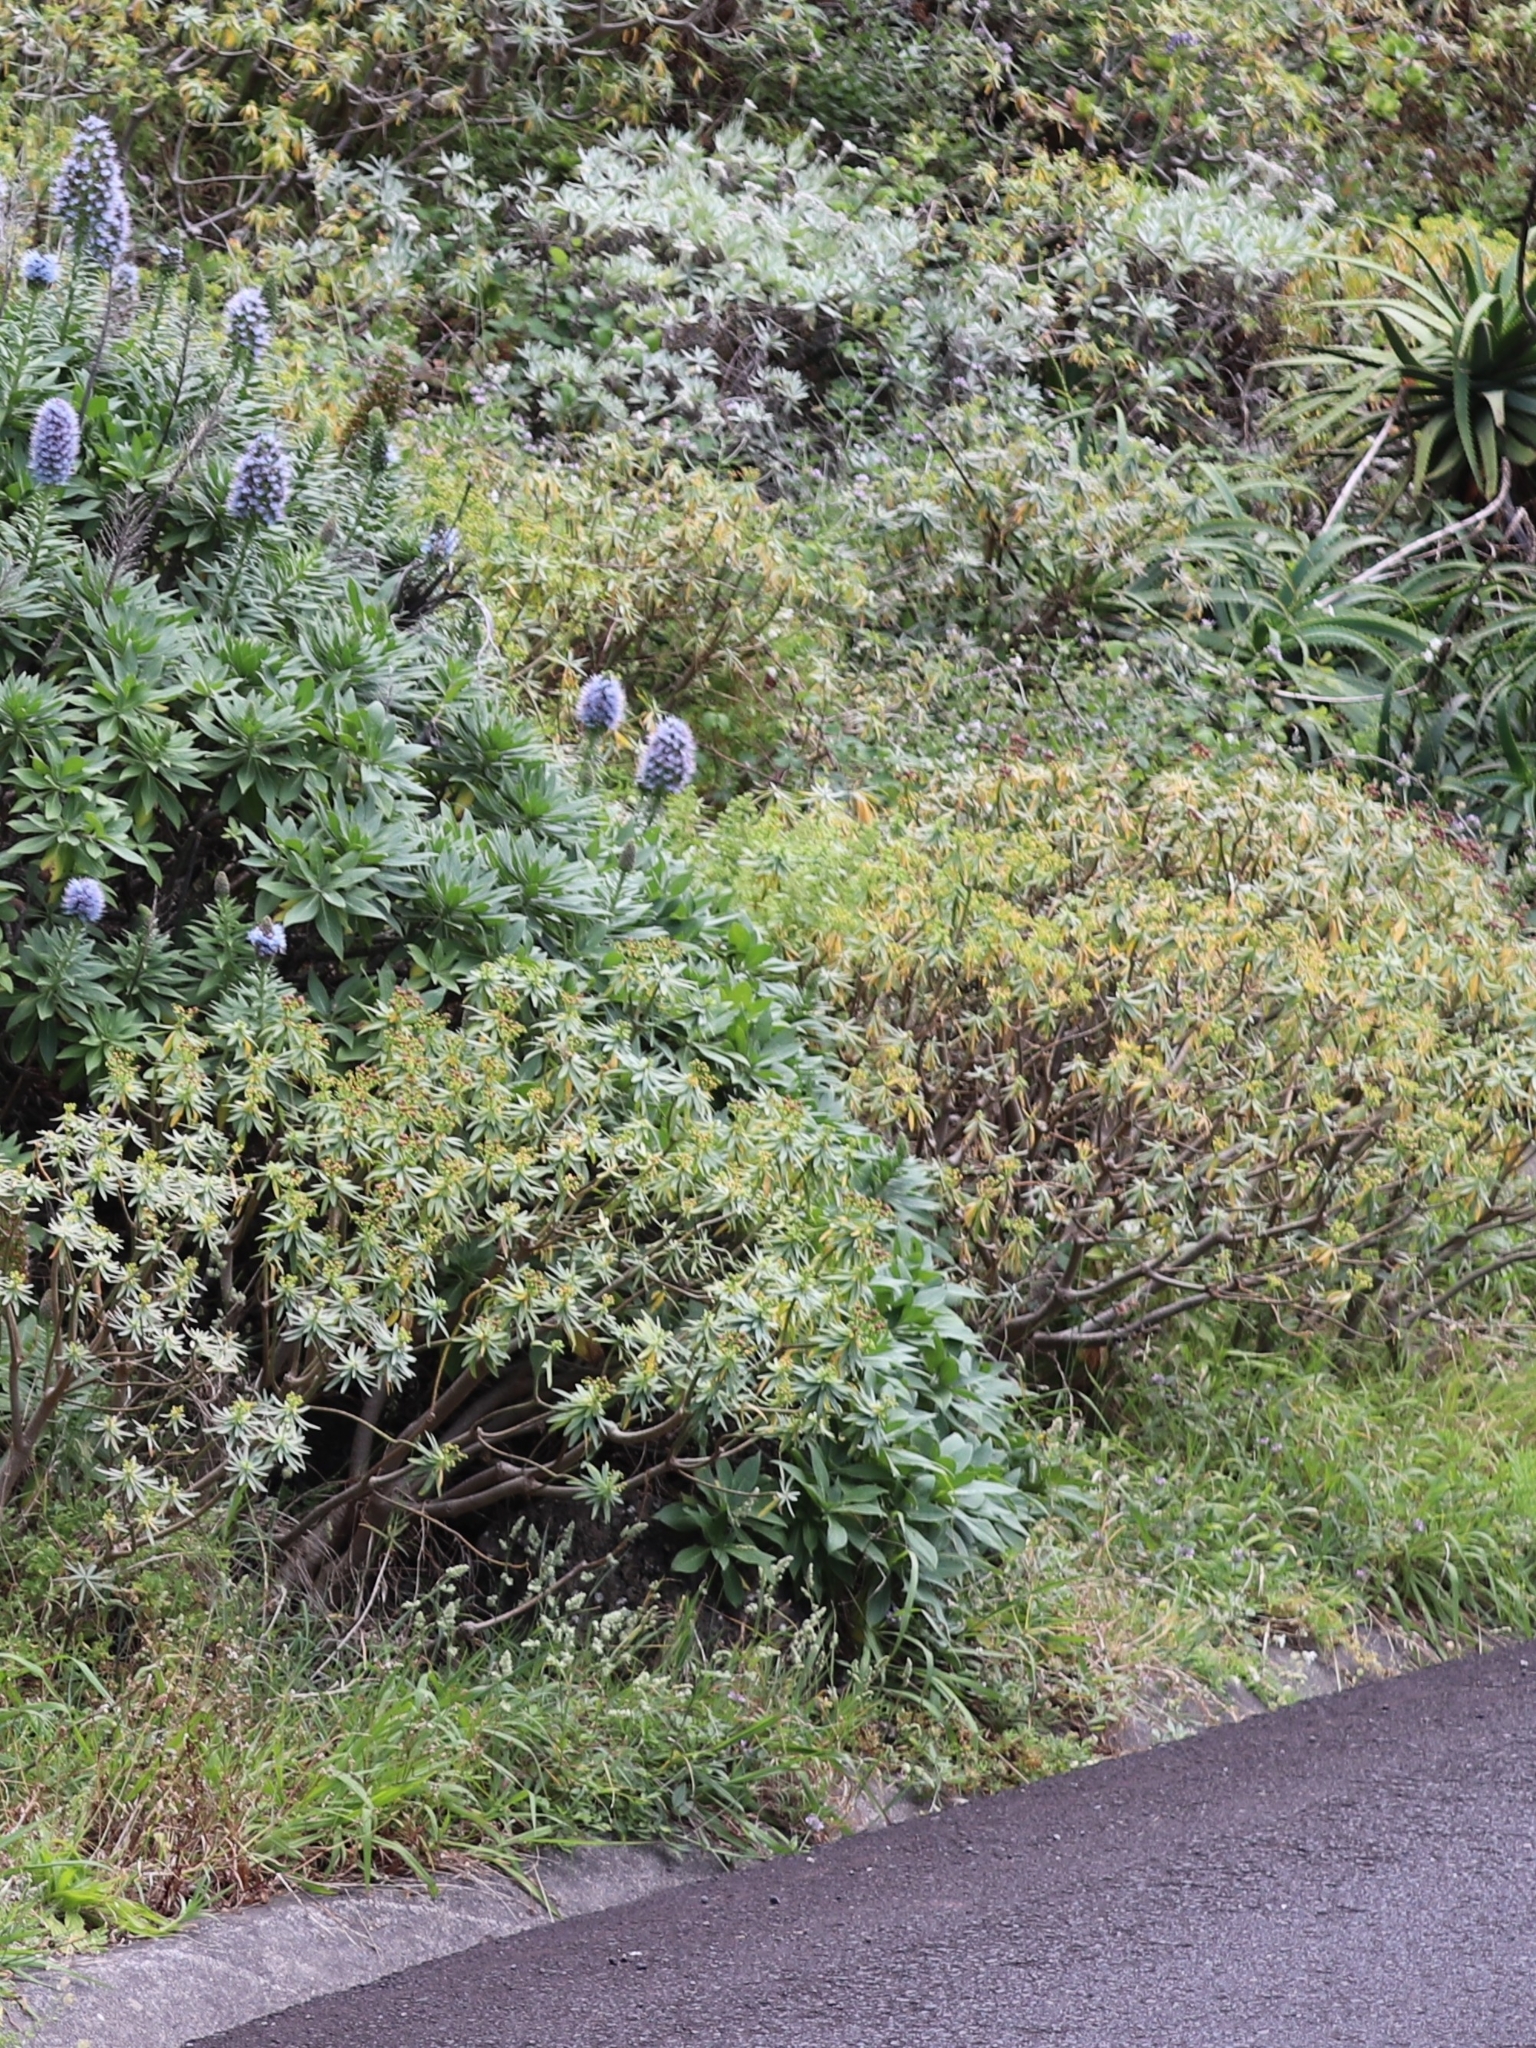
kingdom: Plantae
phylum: Tracheophyta
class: Magnoliopsida
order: Malpighiales
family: Euphorbiaceae
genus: Euphorbia
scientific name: Euphorbia piscatoria
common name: Fish-stunning spurge
